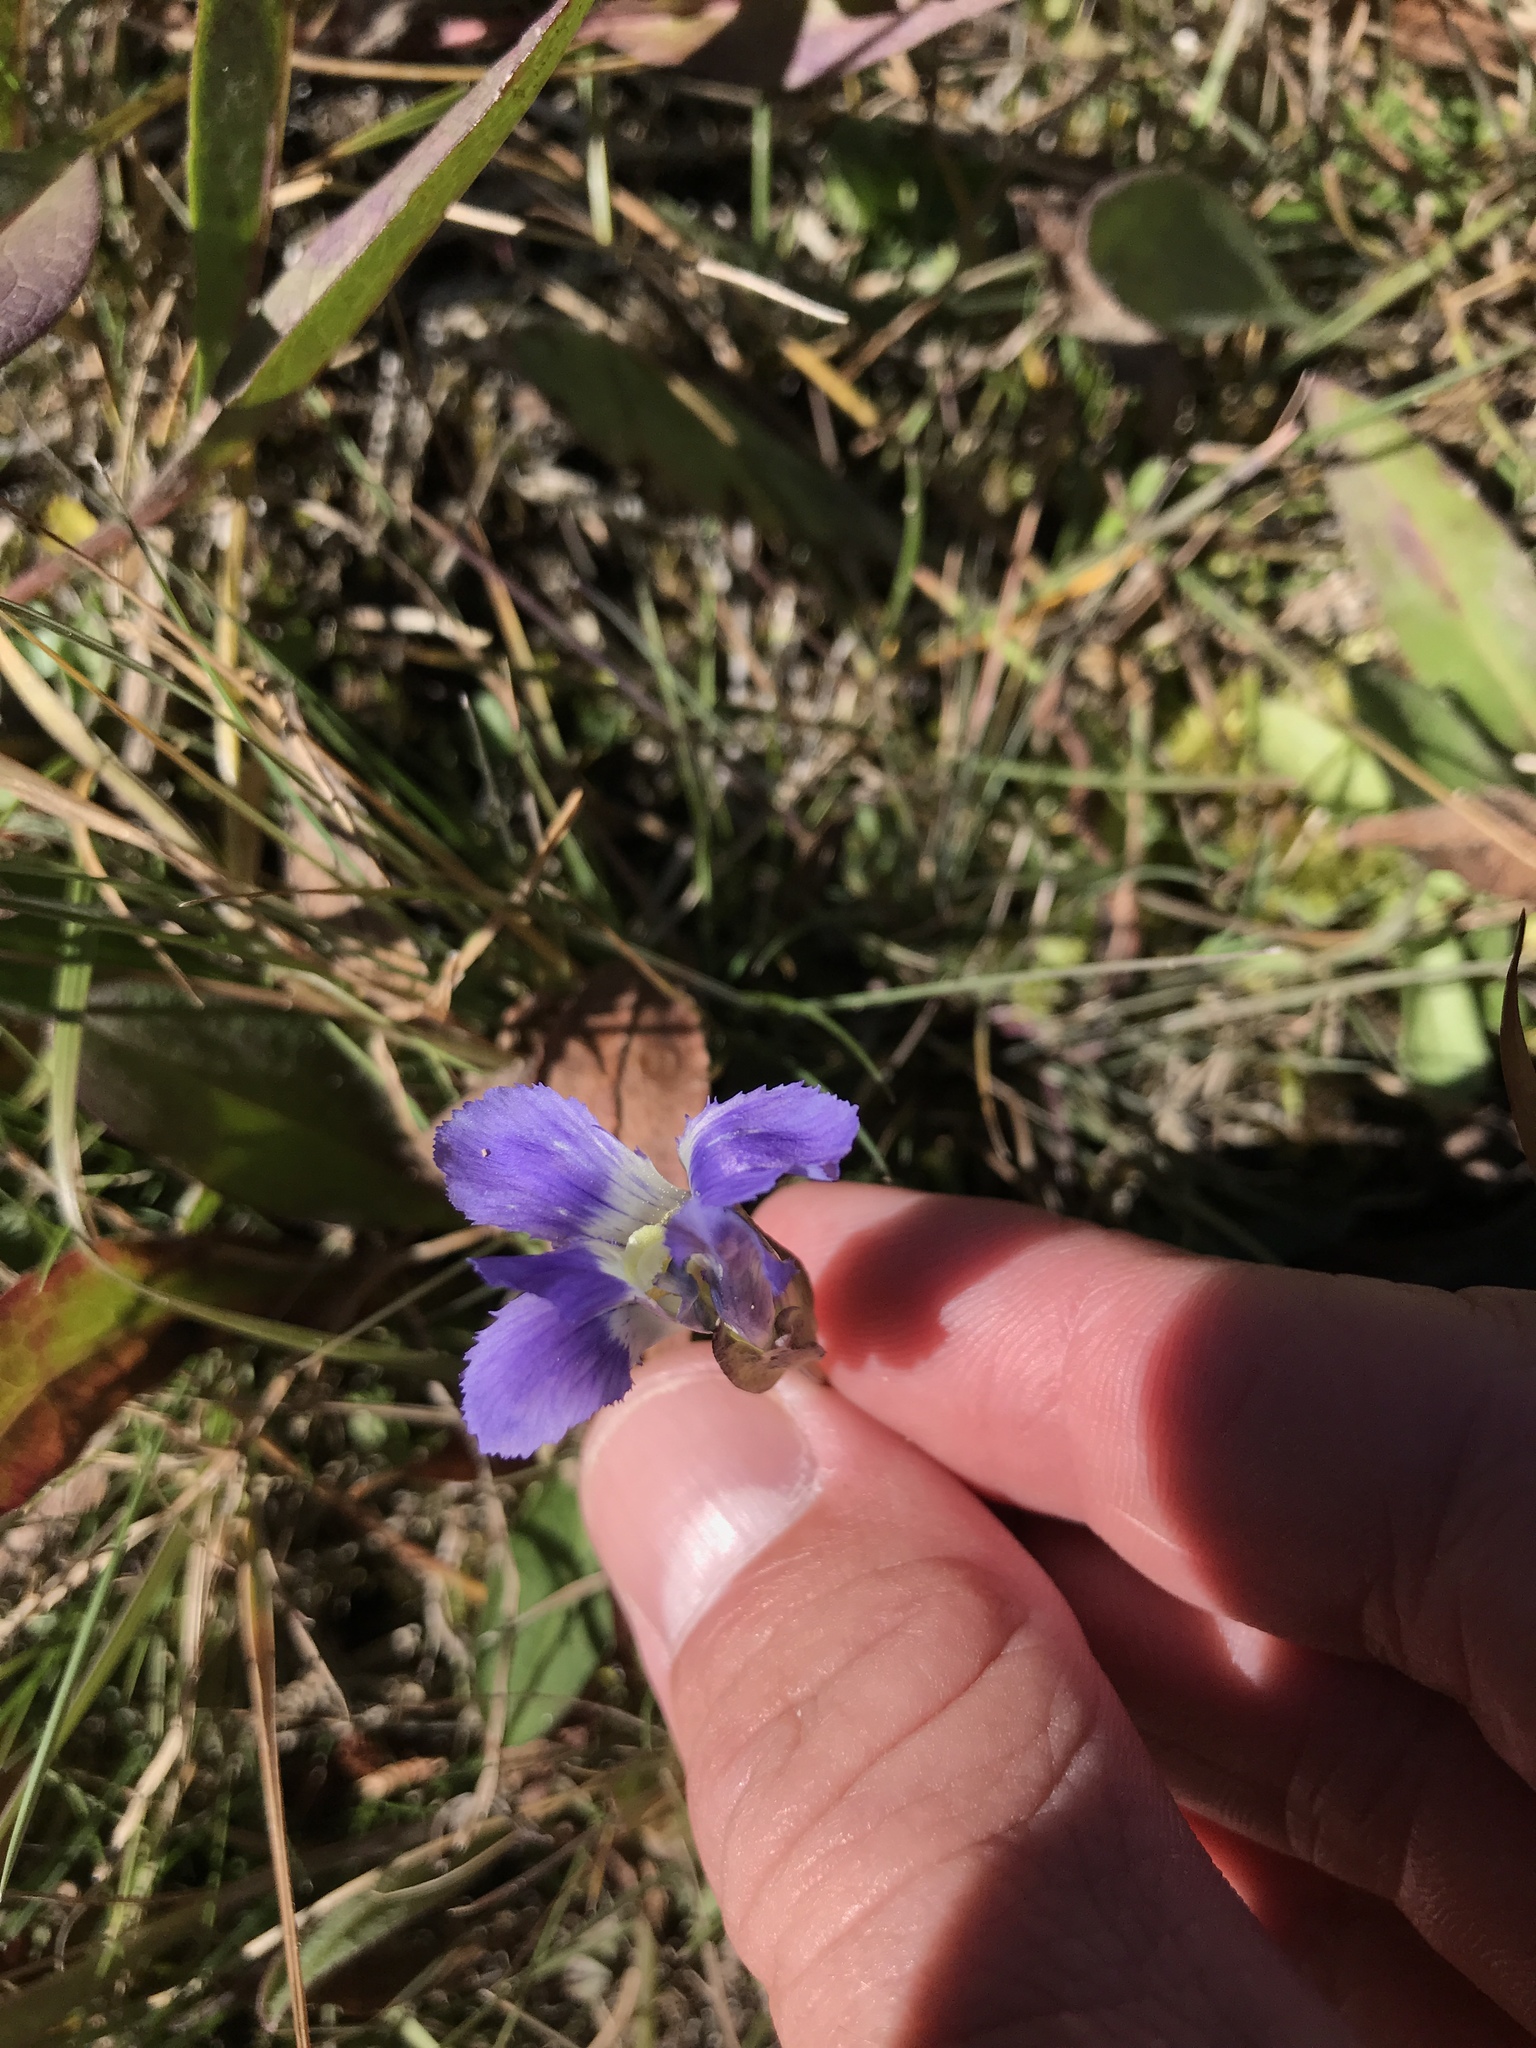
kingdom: Plantae
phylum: Tracheophyta
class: Magnoliopsida
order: Gentianales
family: Gentianaceae
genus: Gentianopsis
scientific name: Gentianopsis thermalis
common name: Rocky mountain fringed-gentian
